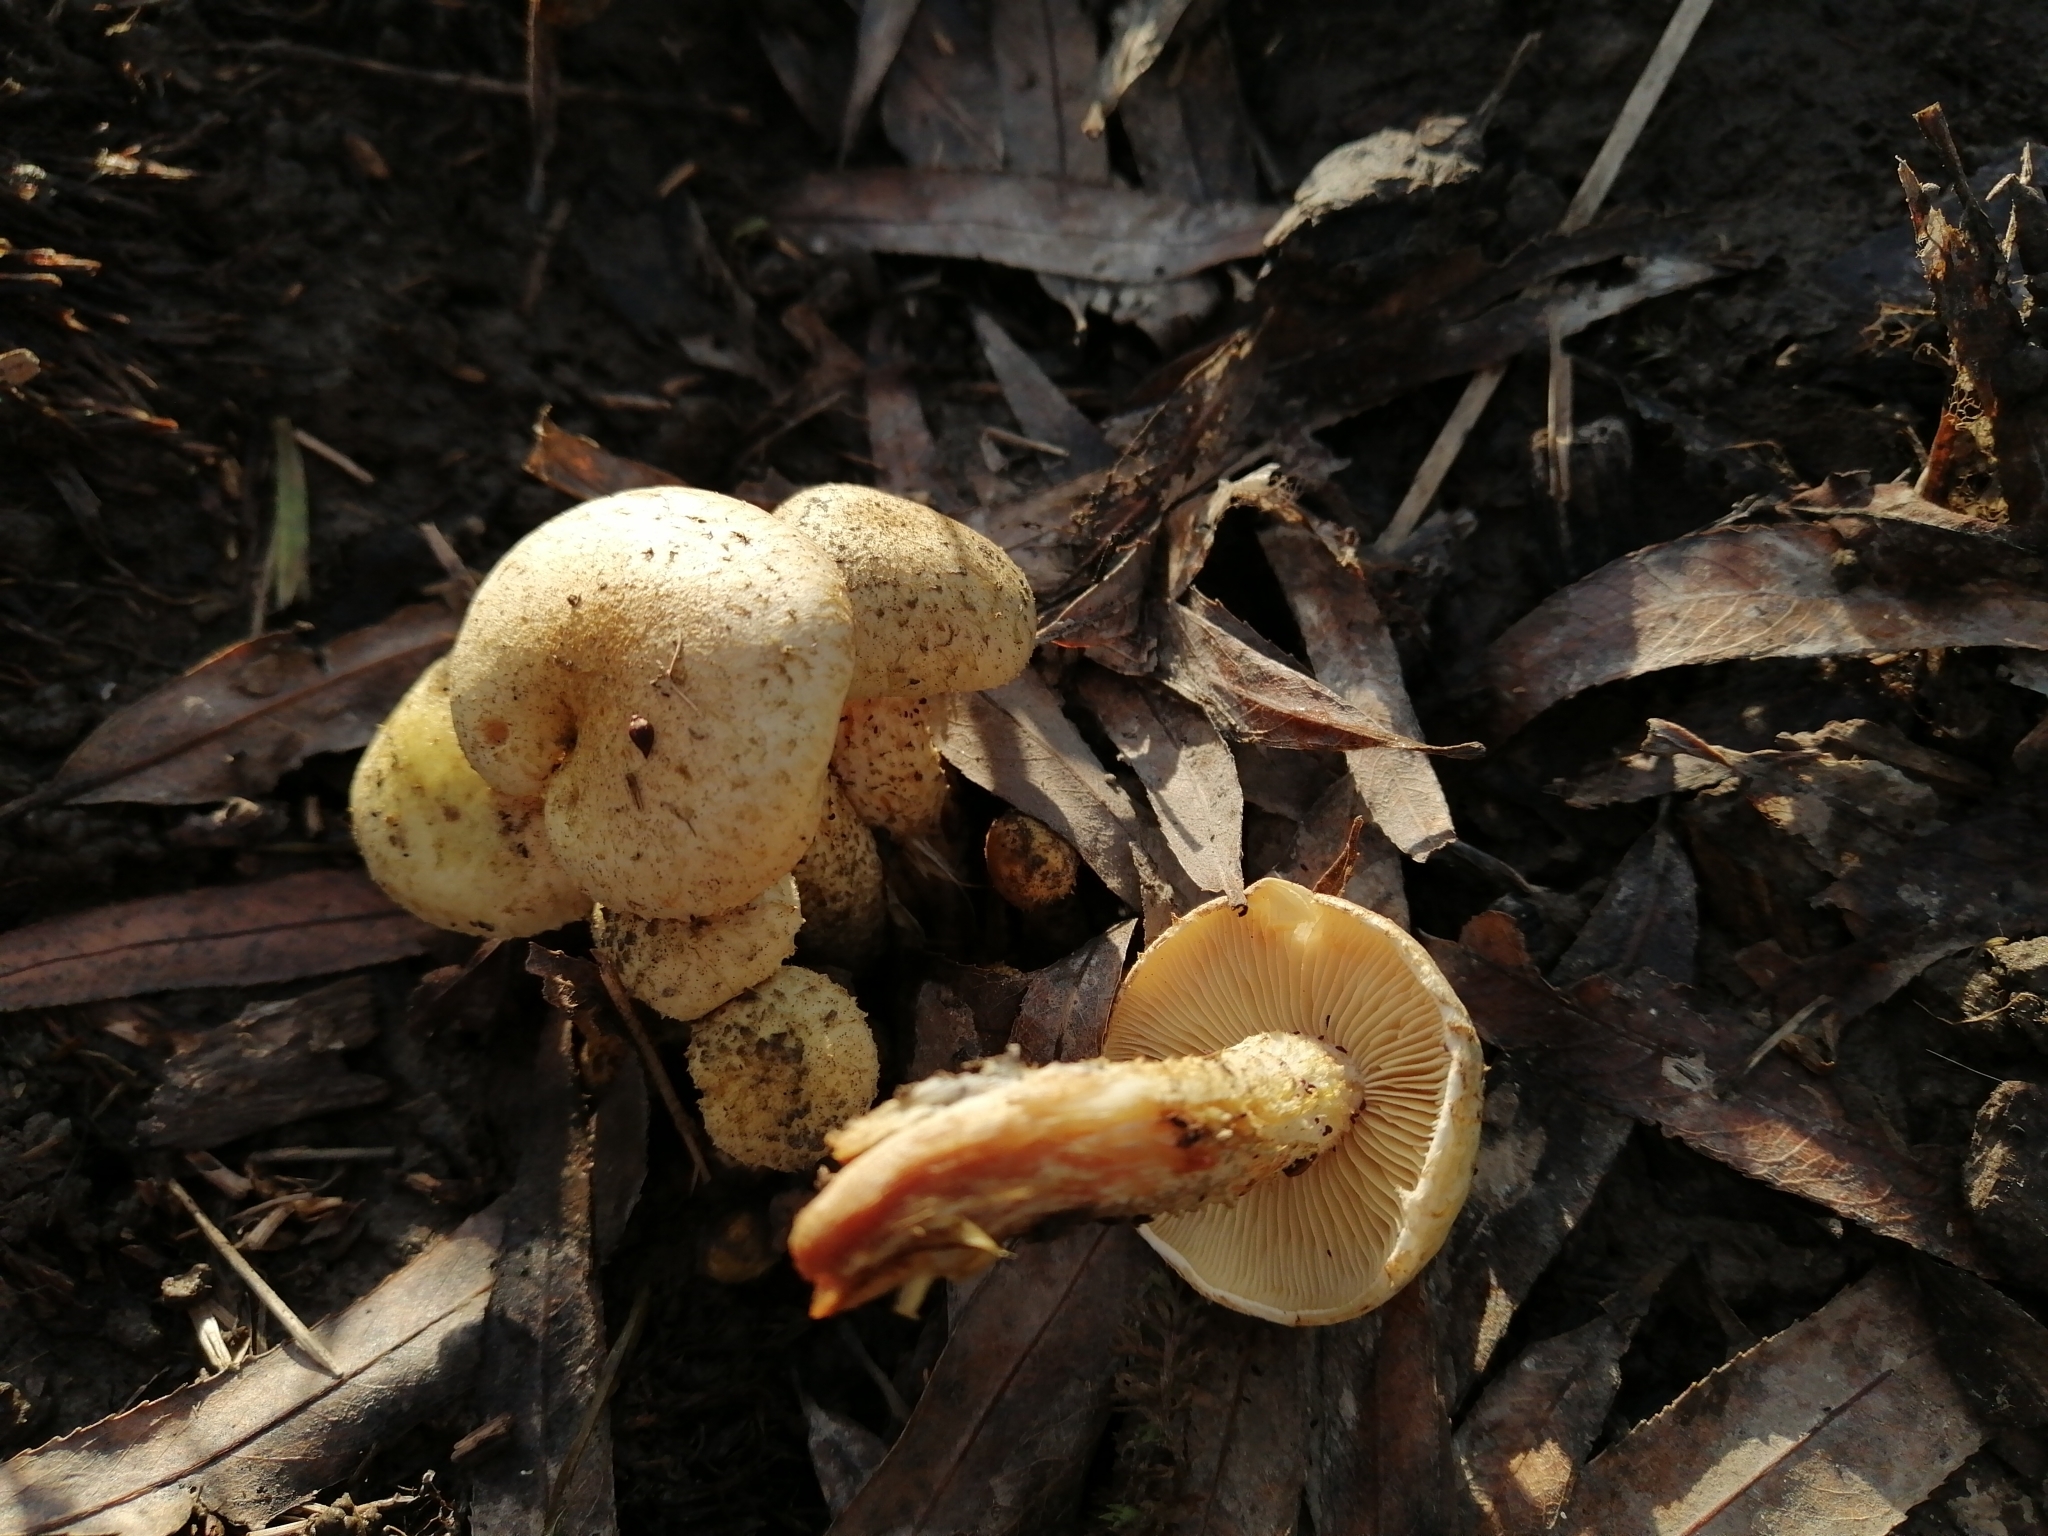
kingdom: Fungi
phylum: Basidiomycota
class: Agaricomycetes
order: Agaricales
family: Strophariaceae
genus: Pholiota
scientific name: Pholiota gummosa
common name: Sticky scalycap
